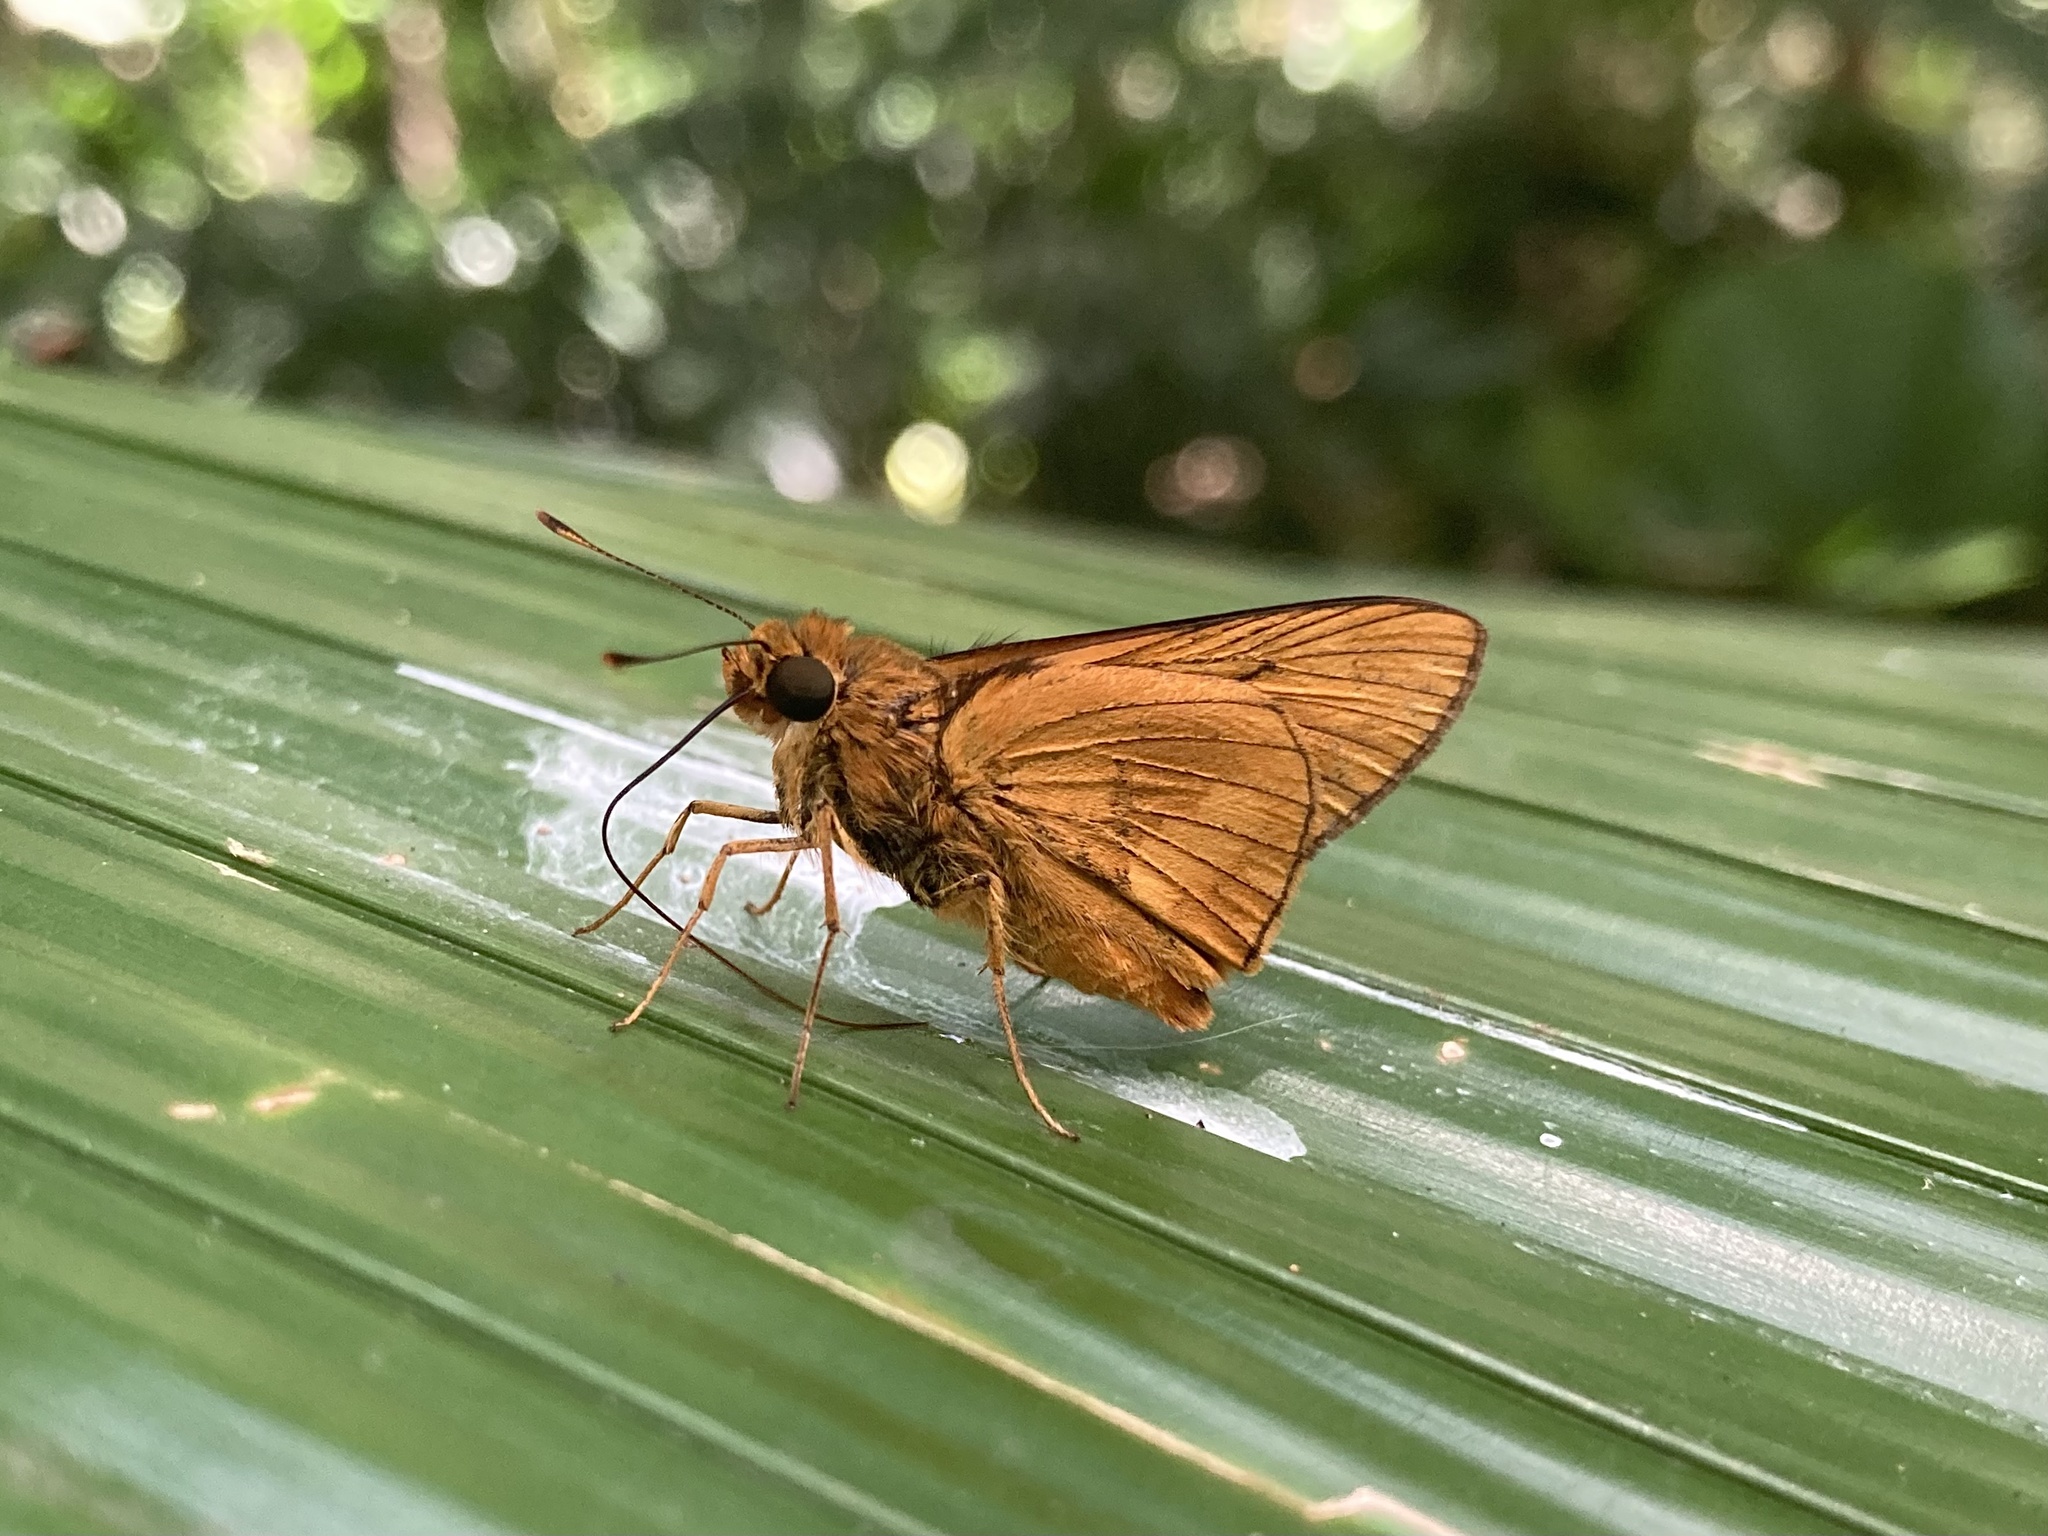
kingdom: Animalia
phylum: Arthropoda
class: Insecta
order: Lepidoptera
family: Hesperiidae
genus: Cephrenes
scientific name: Cephrenes augiades
